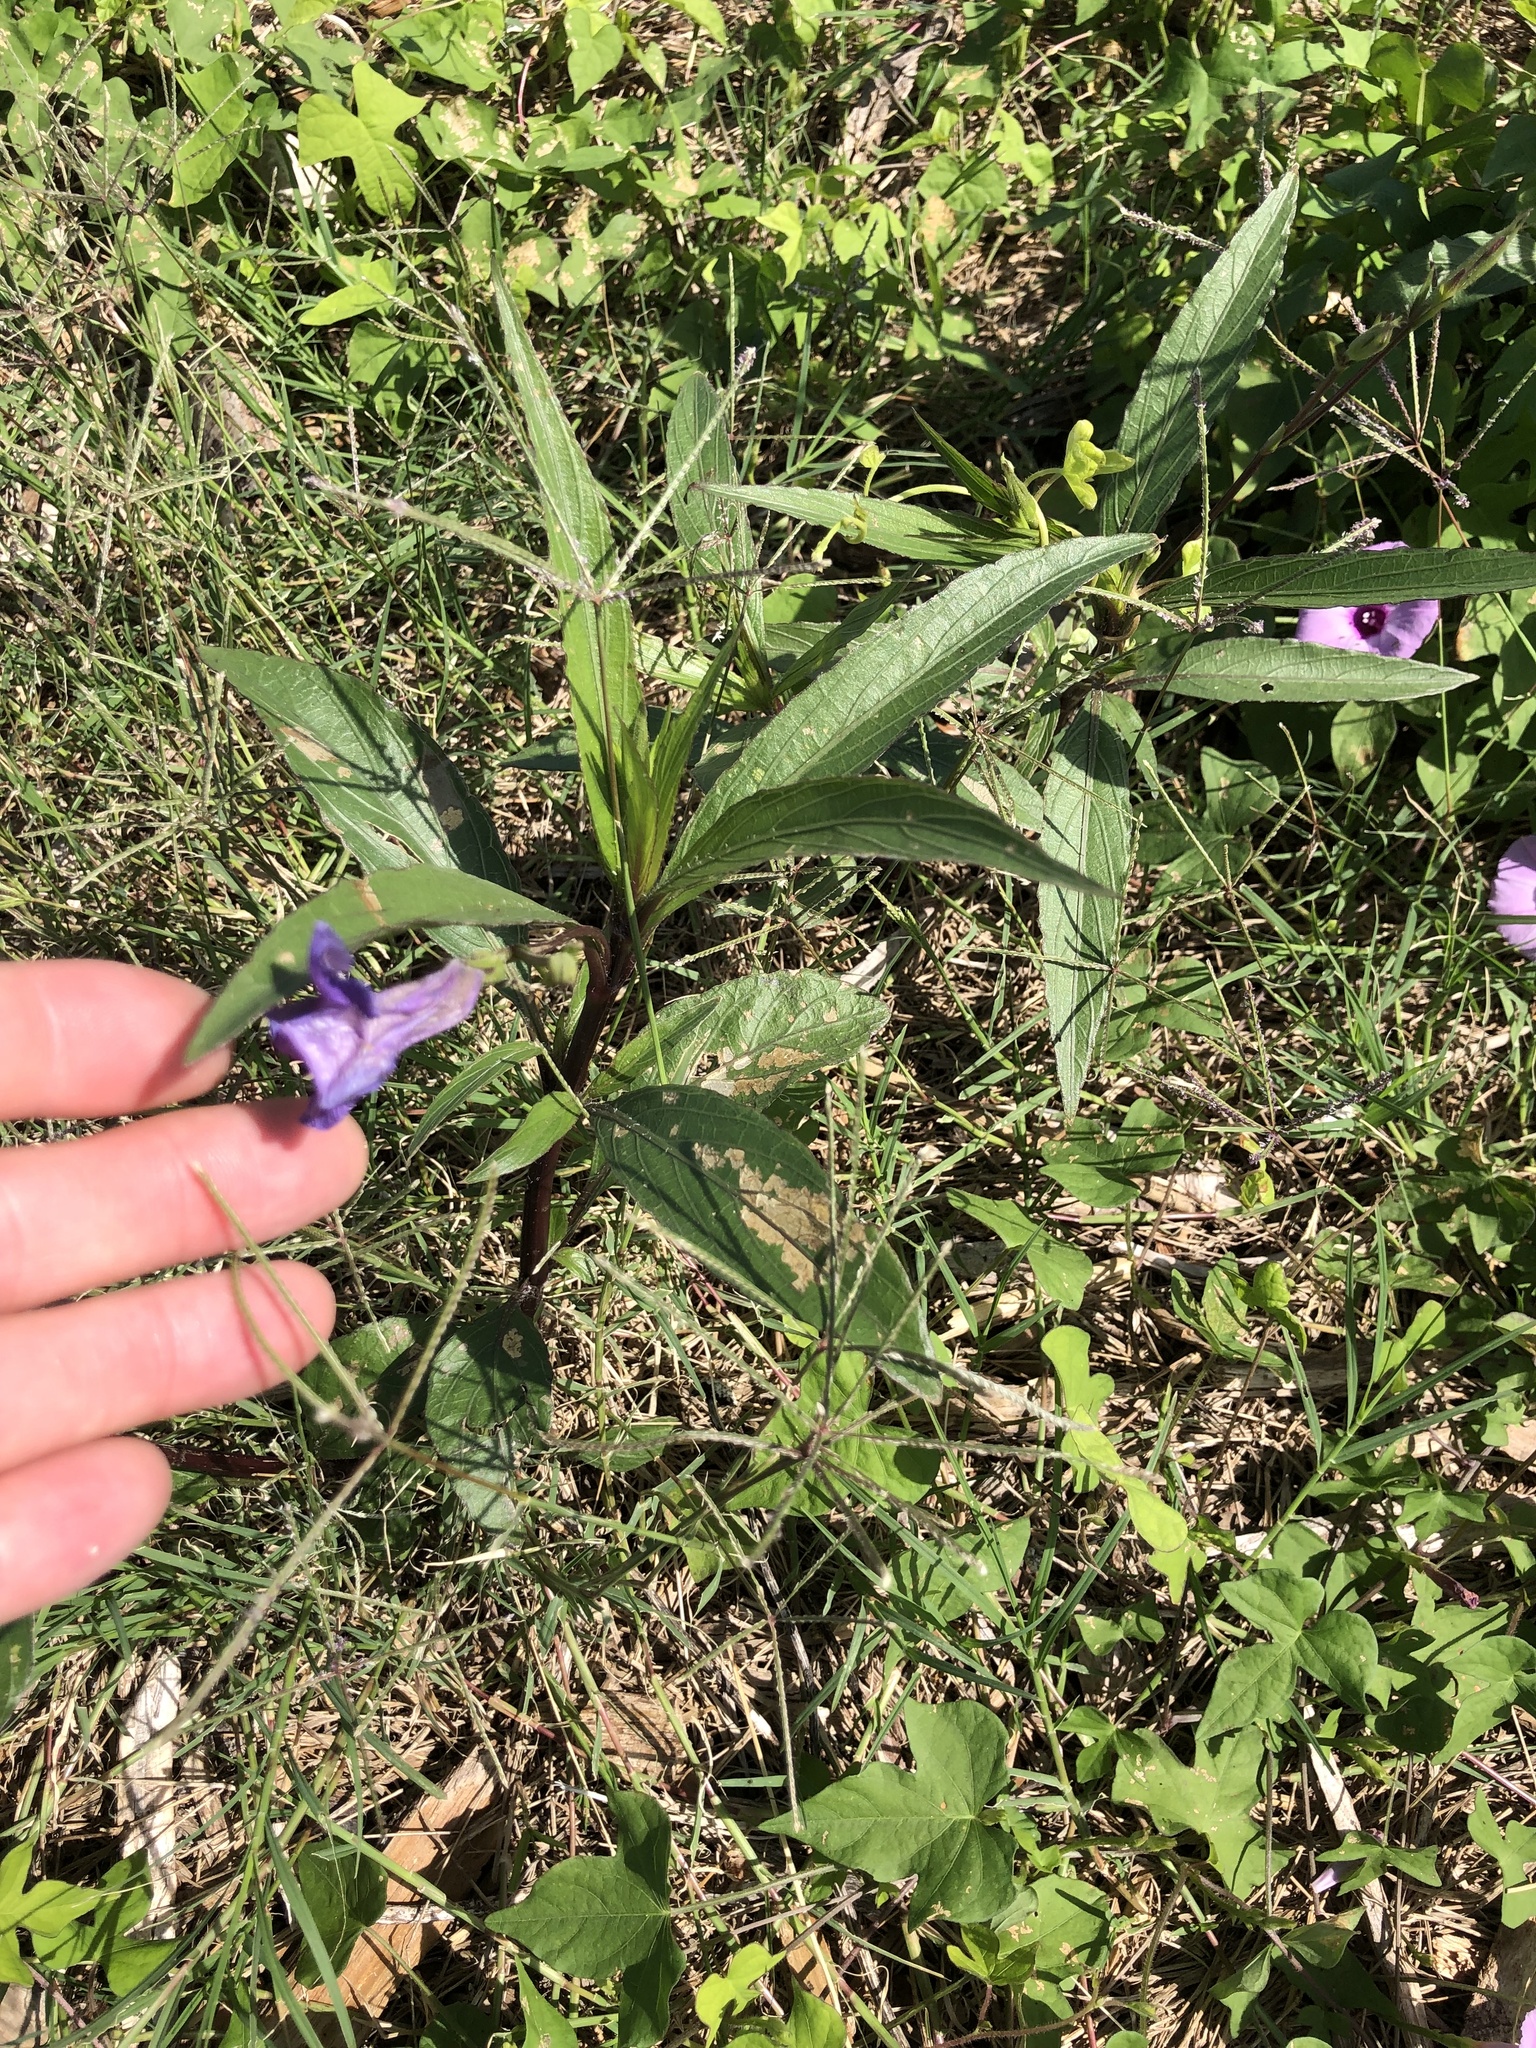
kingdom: Plantae
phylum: Tracheophyta
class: Magnoliopsida
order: Lamiales
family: Acanthaceae
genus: Ruellia
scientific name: Ruellia simplex
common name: Softseed wild petunia
